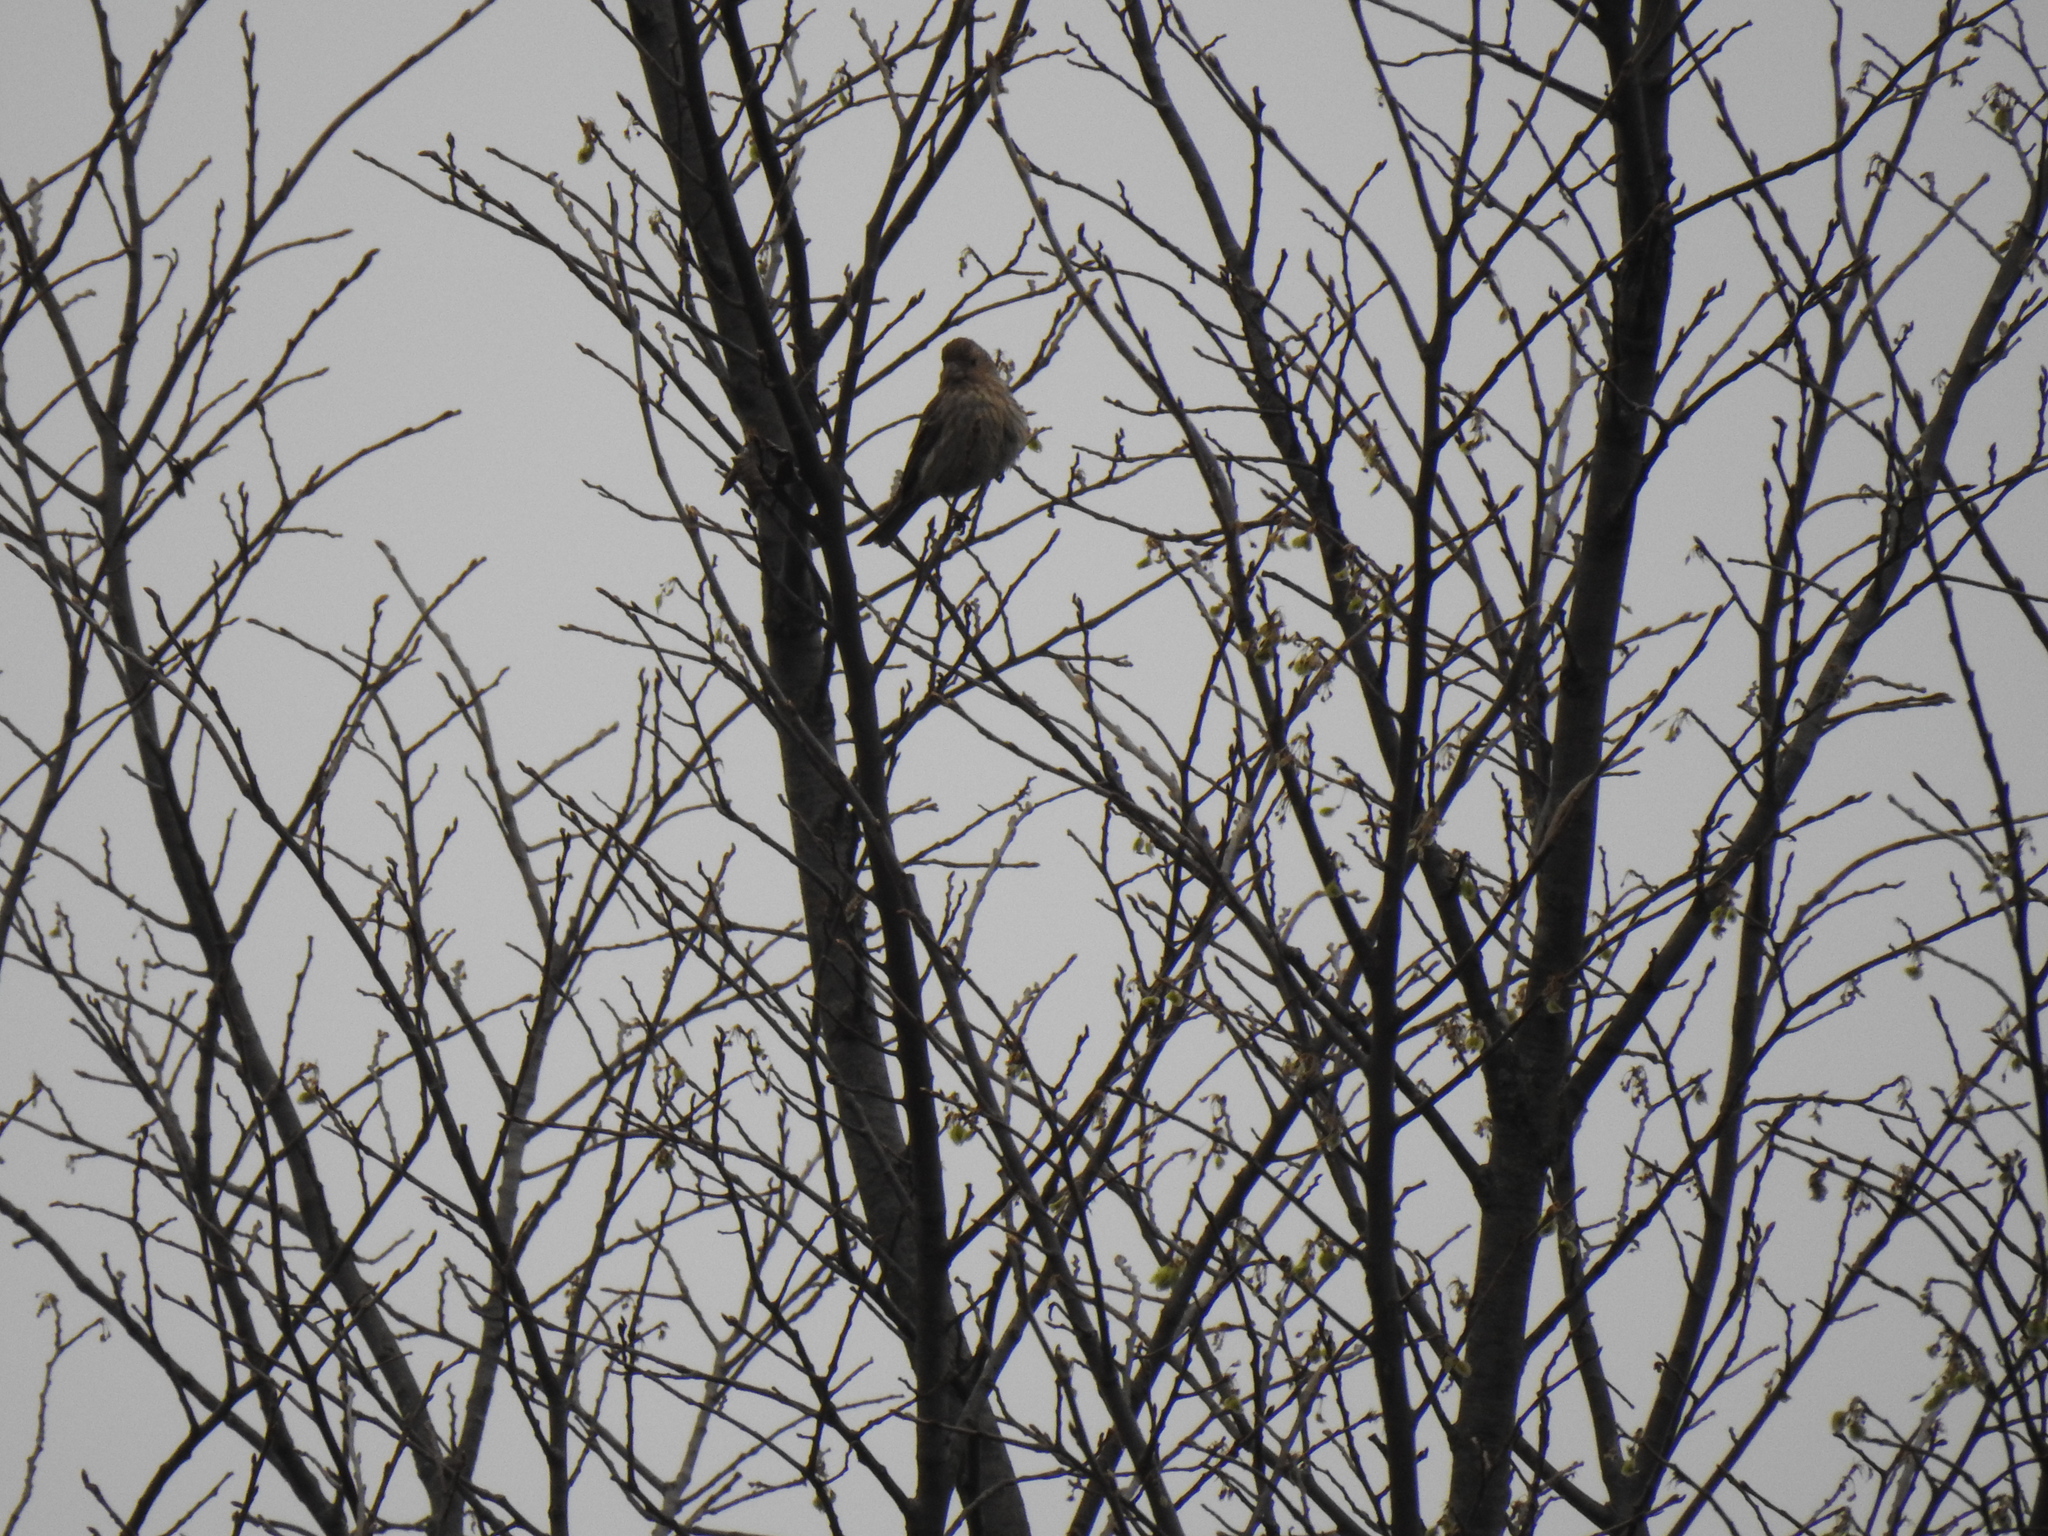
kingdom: Animalia
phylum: Chordata
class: Aves
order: Passeriformes
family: Fringillidae
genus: Haemorhous
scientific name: Haemorhous mexicanus
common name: House finch
